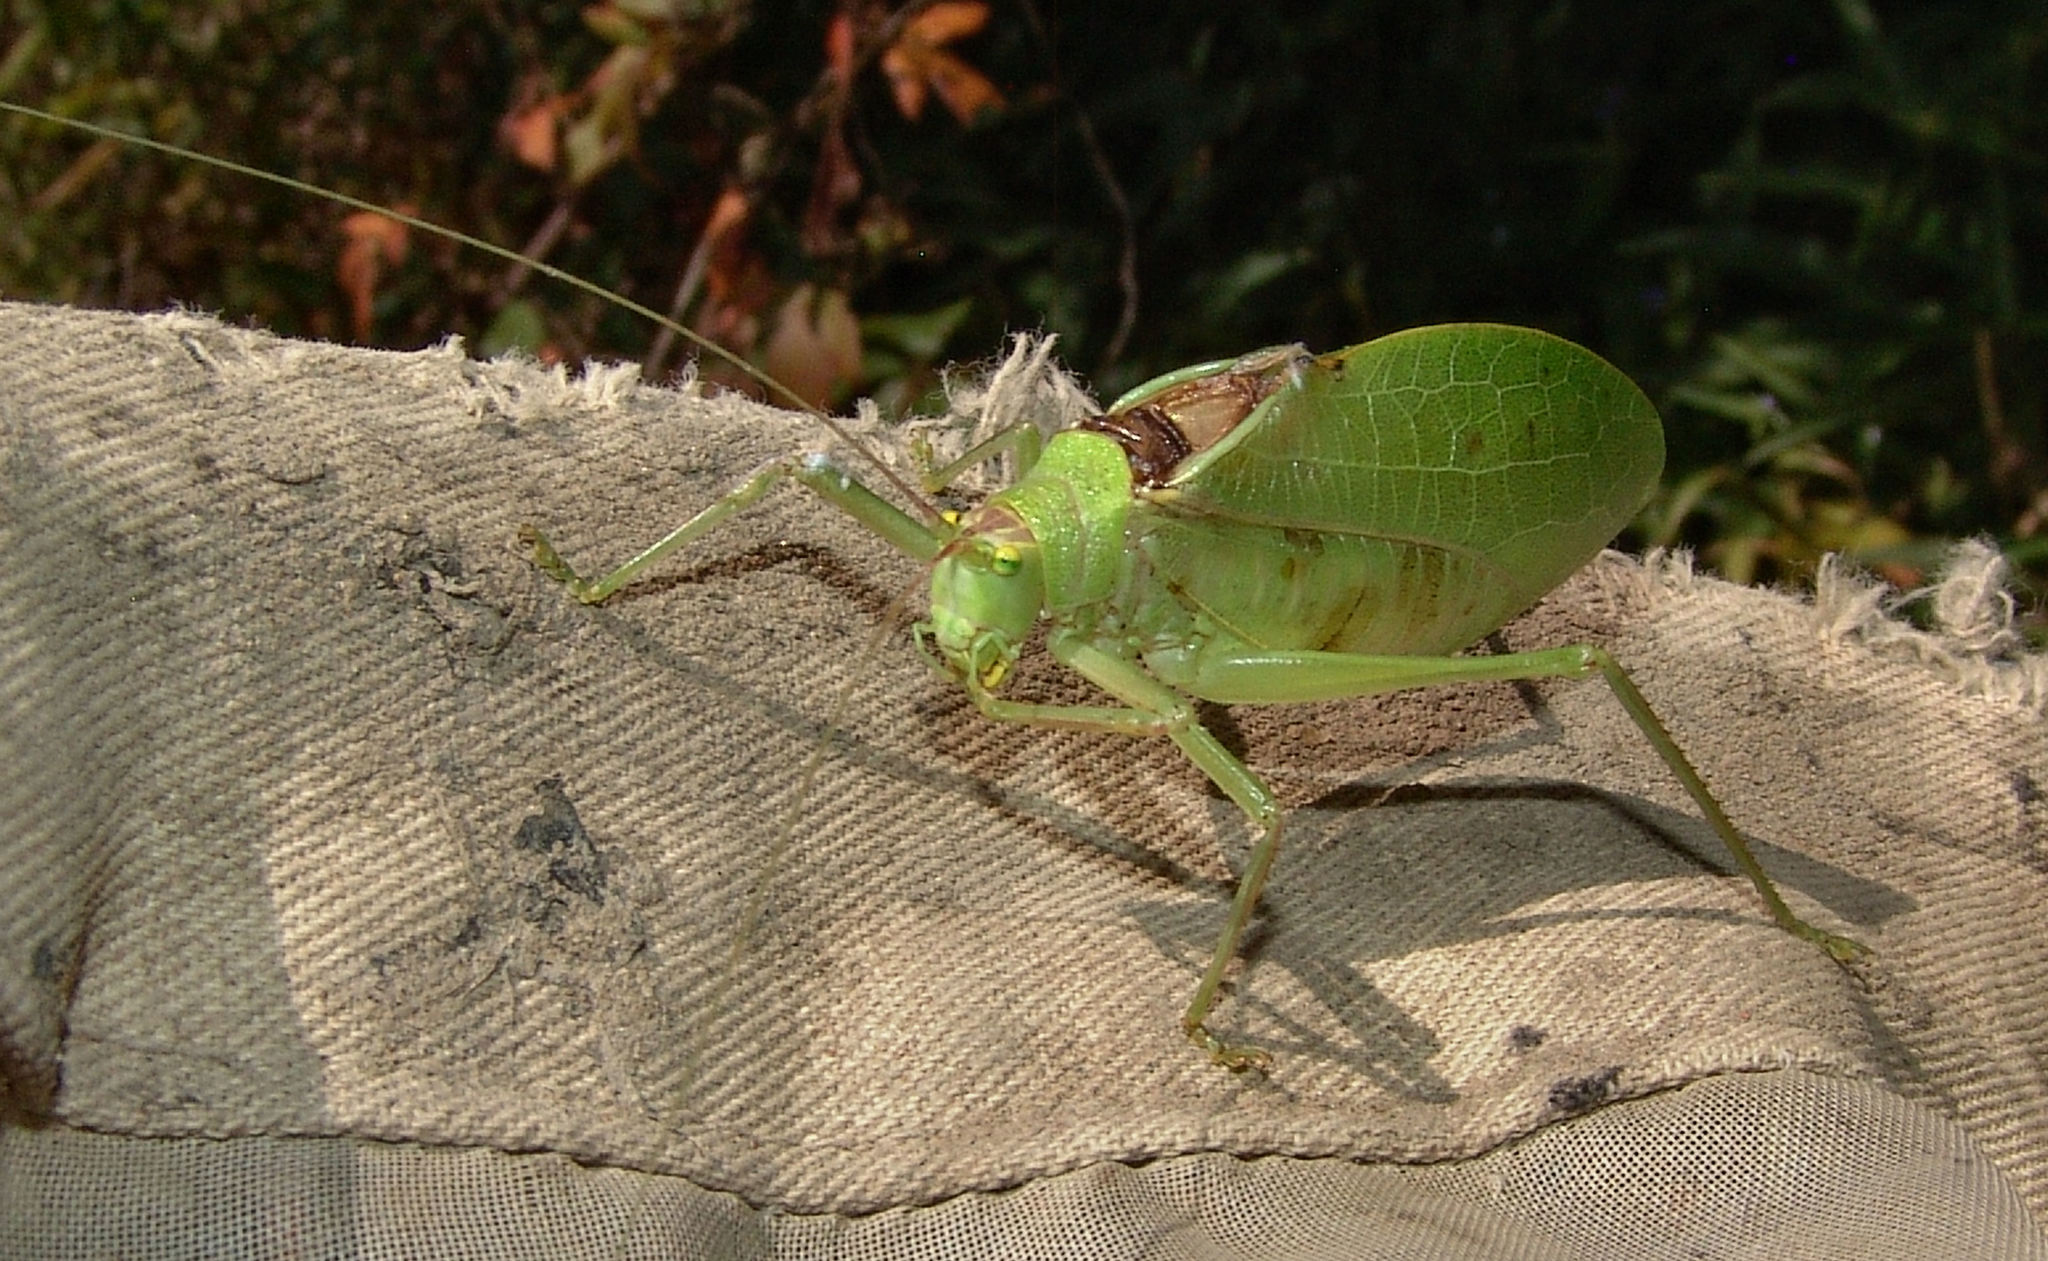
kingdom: Animalia
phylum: Arthropoda
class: Insecta
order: Orthoptera
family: Tettigoniidae
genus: Pterophylla
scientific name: Pterophylla camellifolia
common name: Common true katydid
